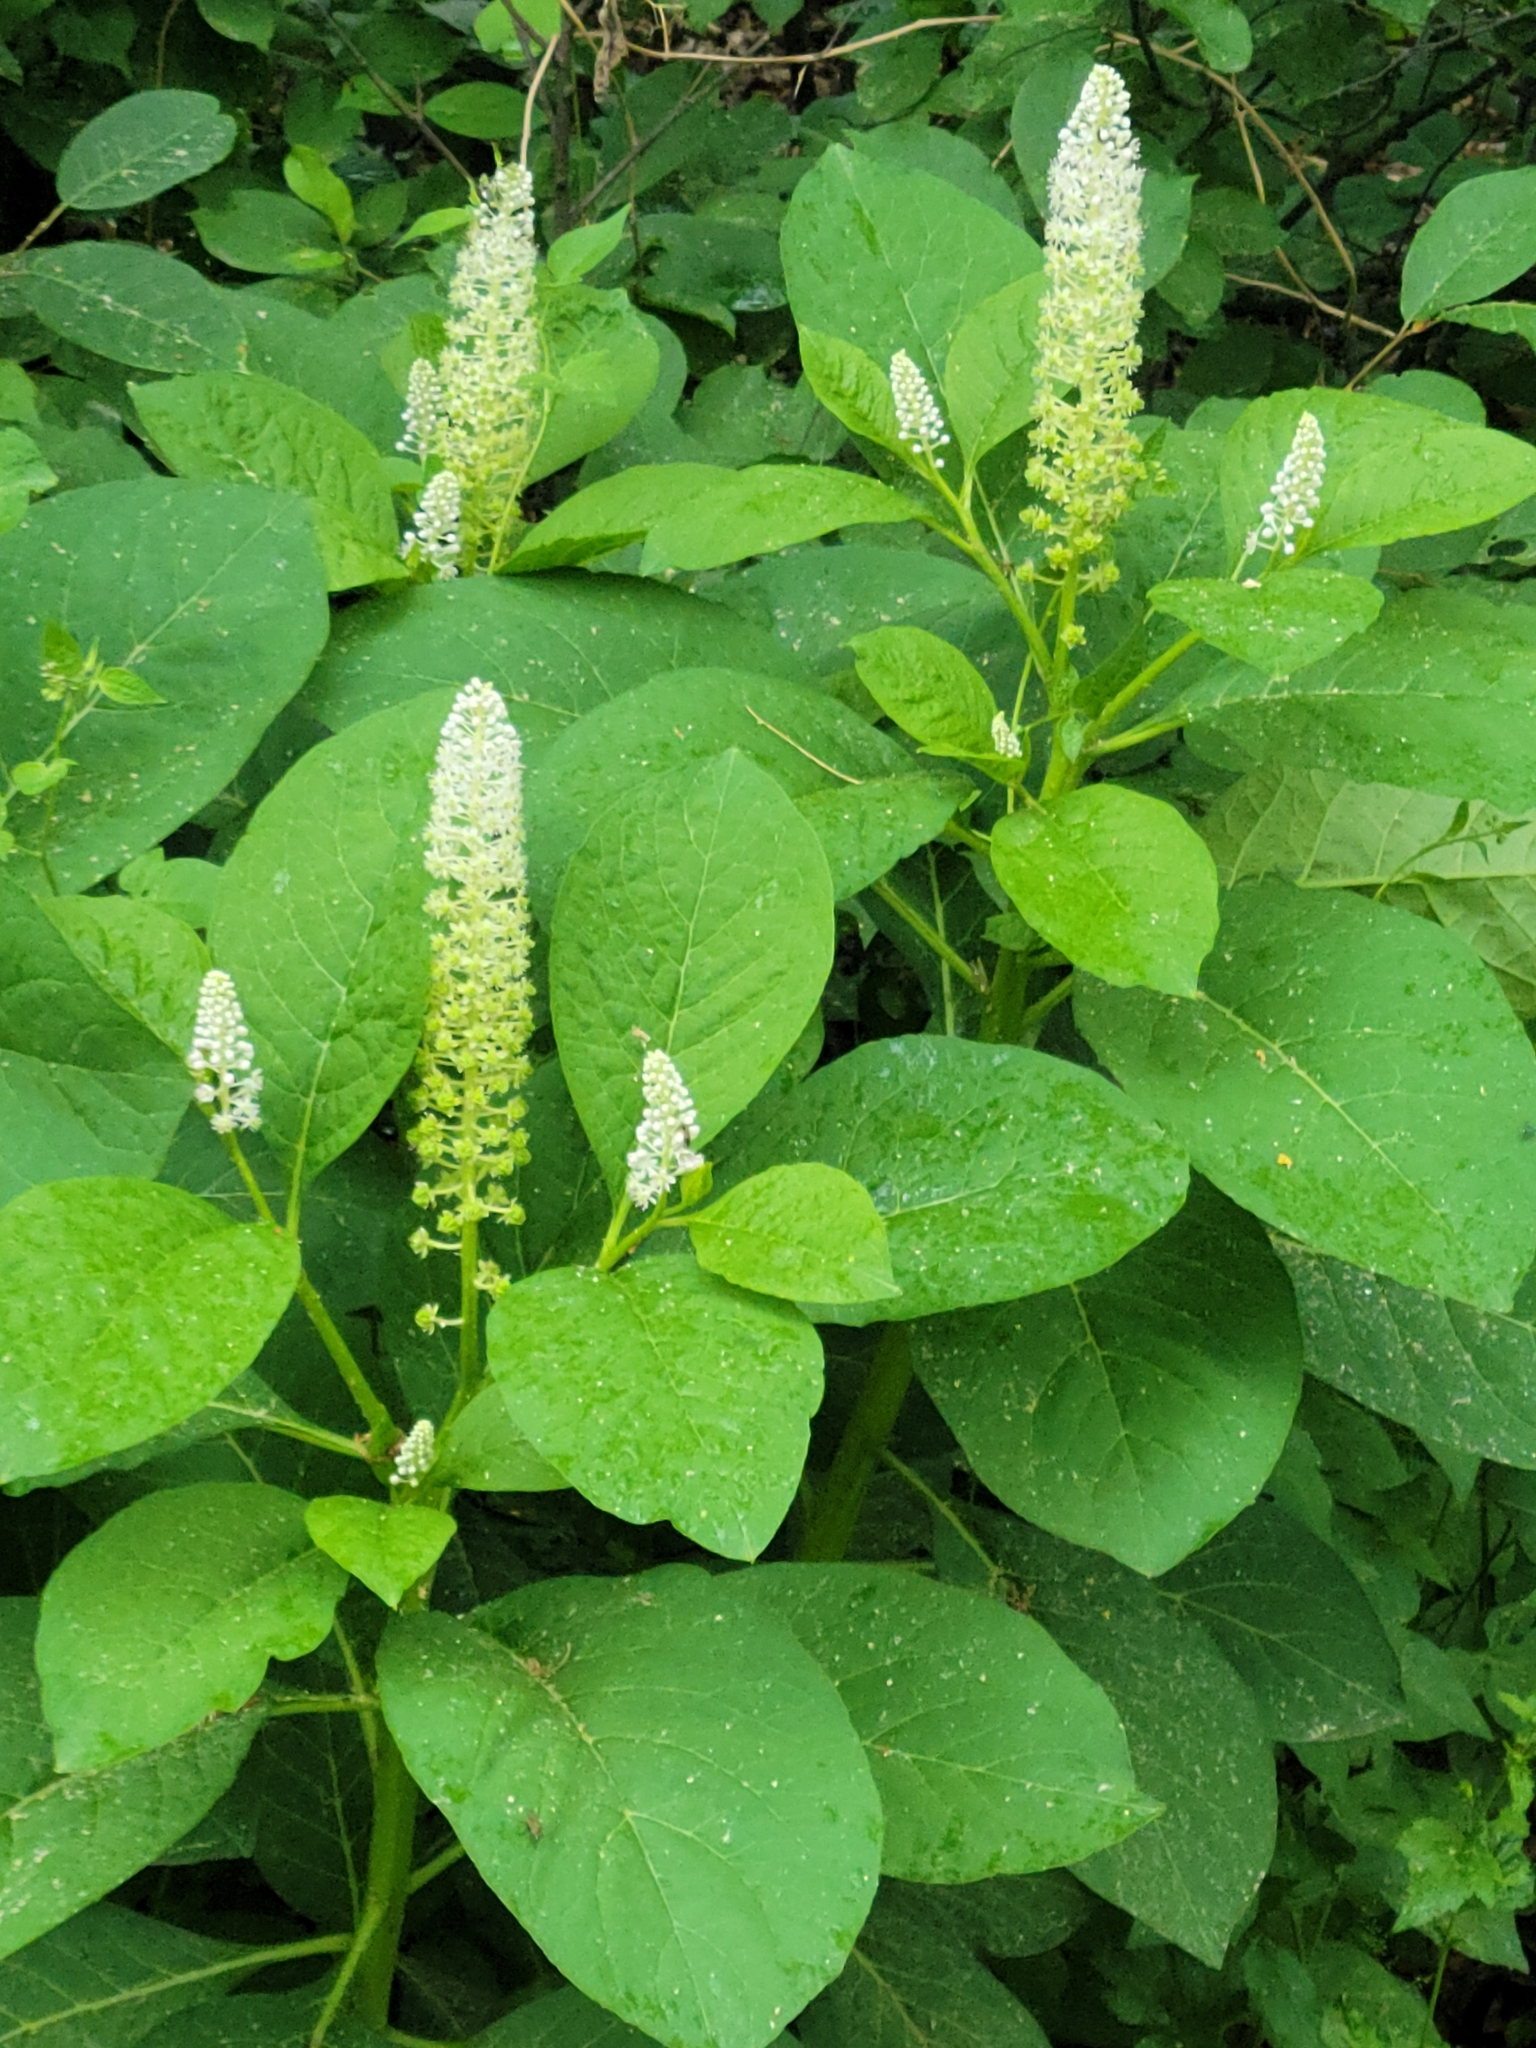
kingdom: Plantae
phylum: Tracheophyta
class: Magnoliopsida
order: Caryophyllales
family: Phytolaccaceae
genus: Phytolacca
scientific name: Phytolacca acinosa
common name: Indian pokeweed
